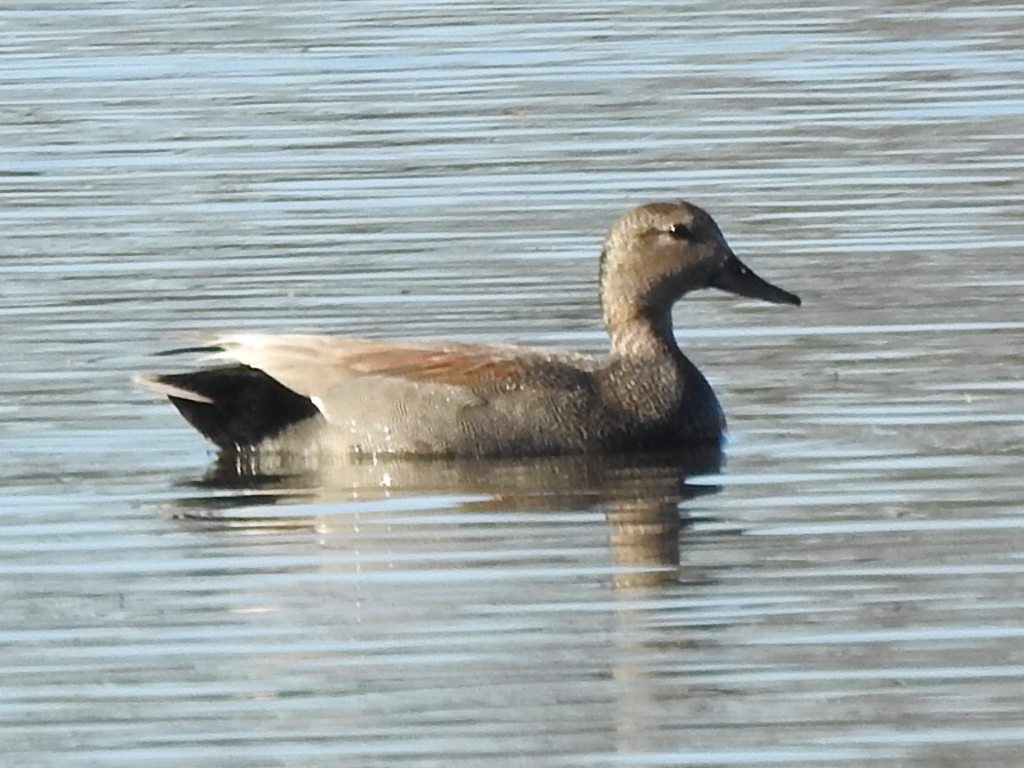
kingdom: Animalia
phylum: Chordata
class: Aves
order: Anseriformes
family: Anatidae
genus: Mareca
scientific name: Mareca strepera
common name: Gadwall
